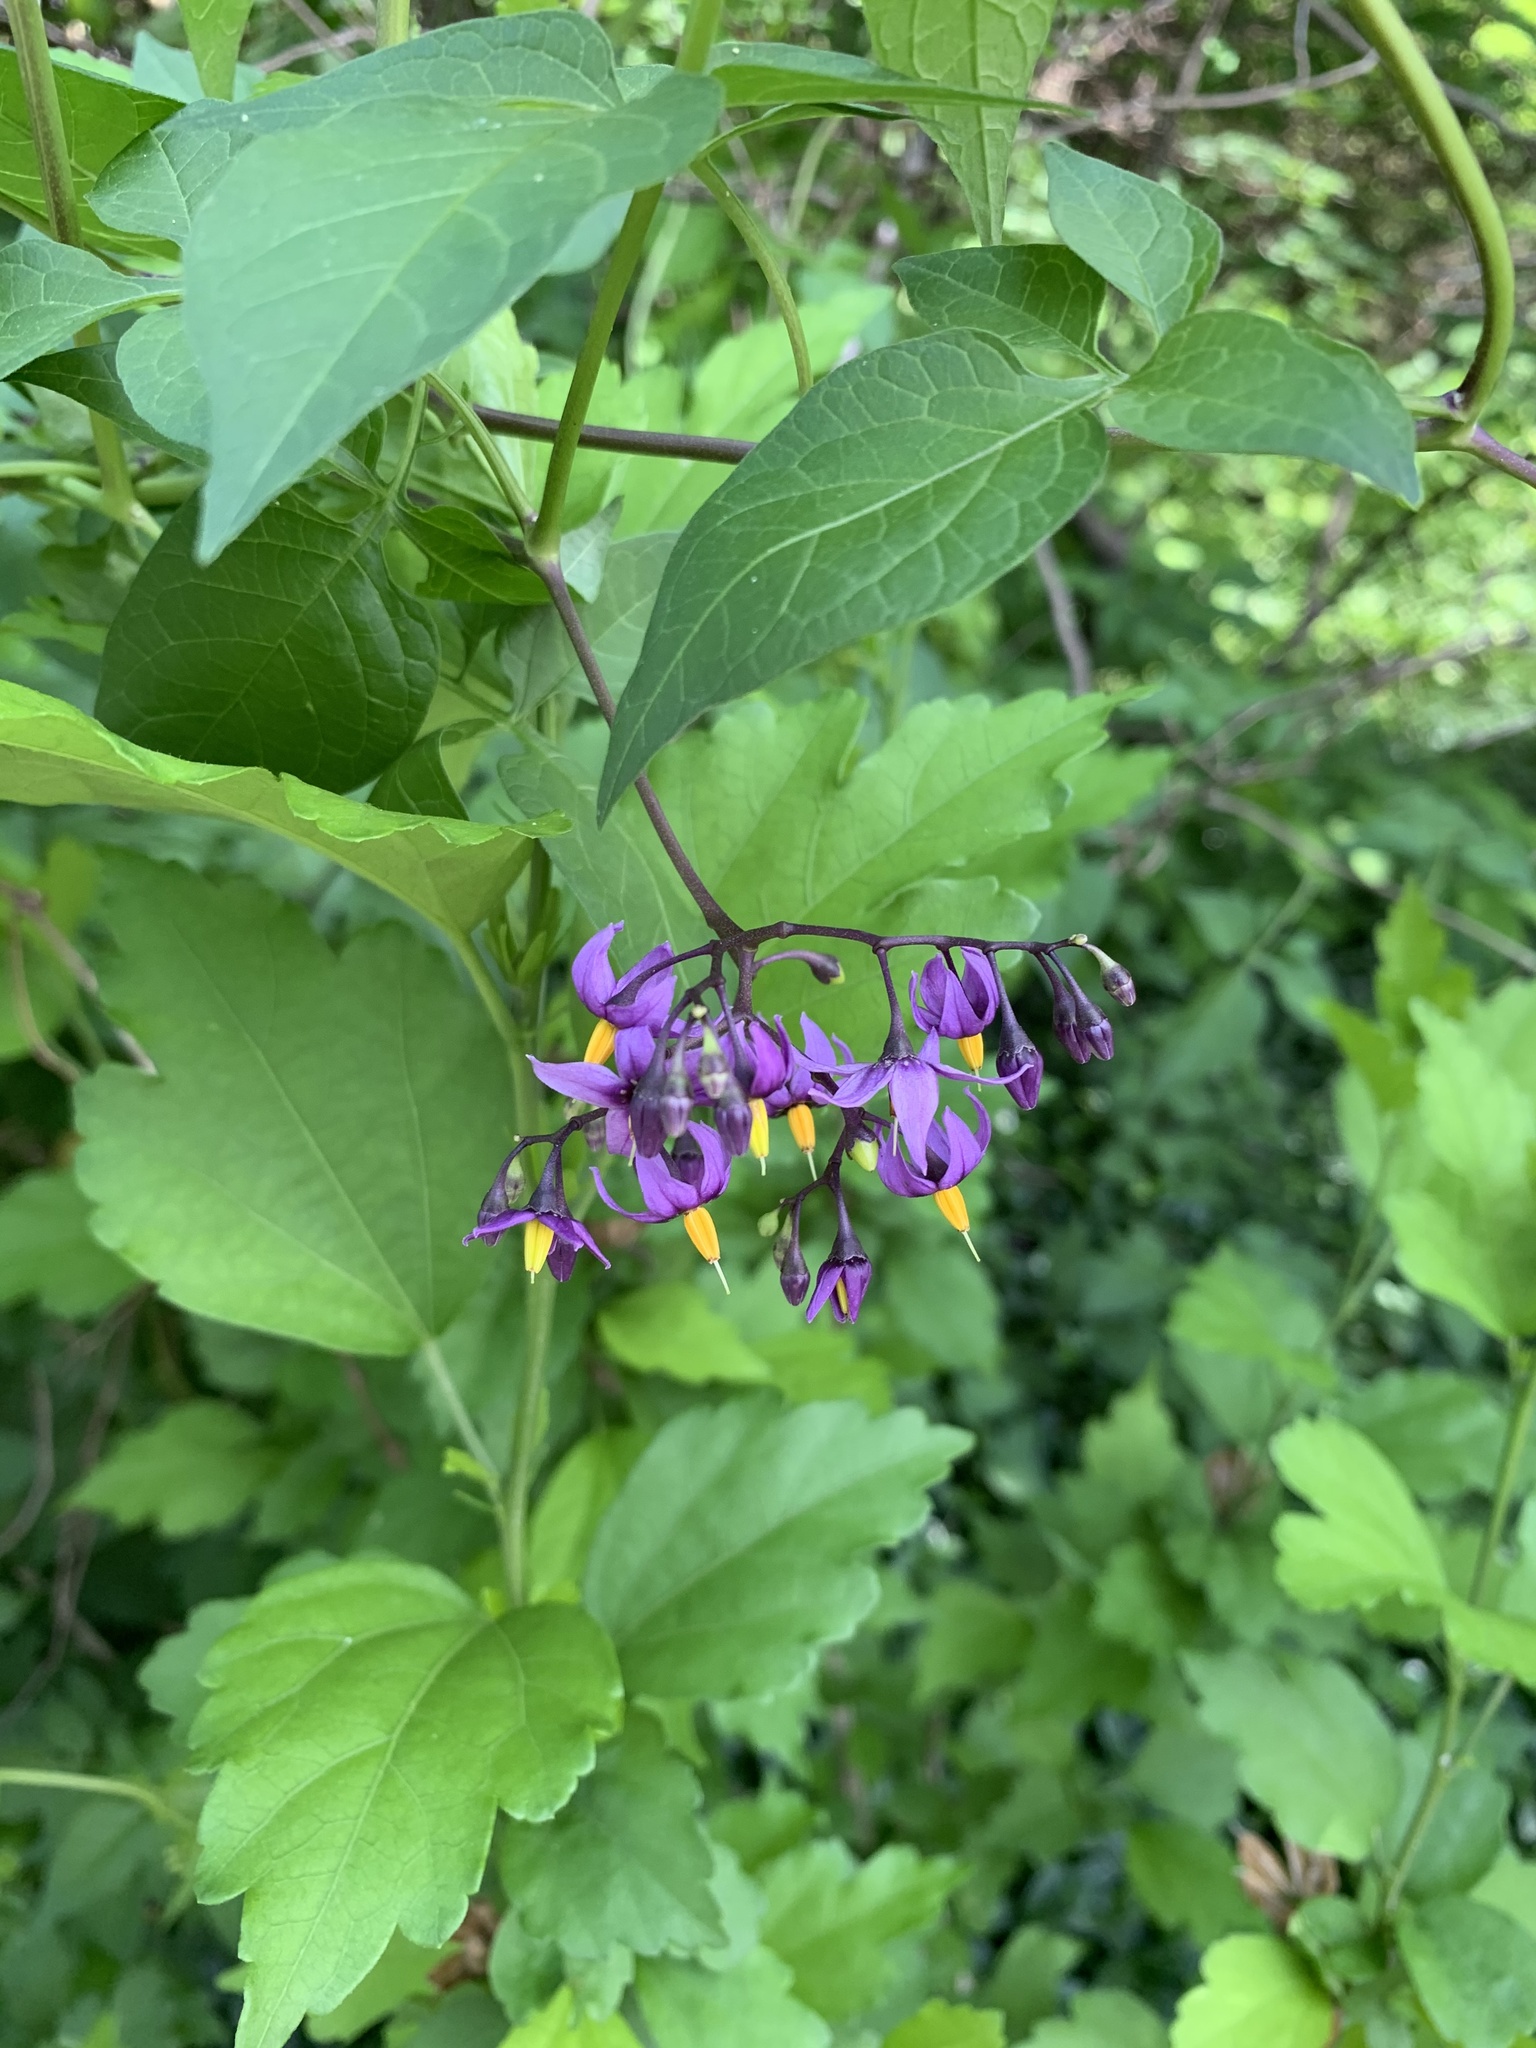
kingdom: Plantae
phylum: Tracheophyta
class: Magnoliopsida
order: Solanales
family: Solanaceae
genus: Solanum
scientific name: Solanum dulcamara
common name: Climbing nightshade
